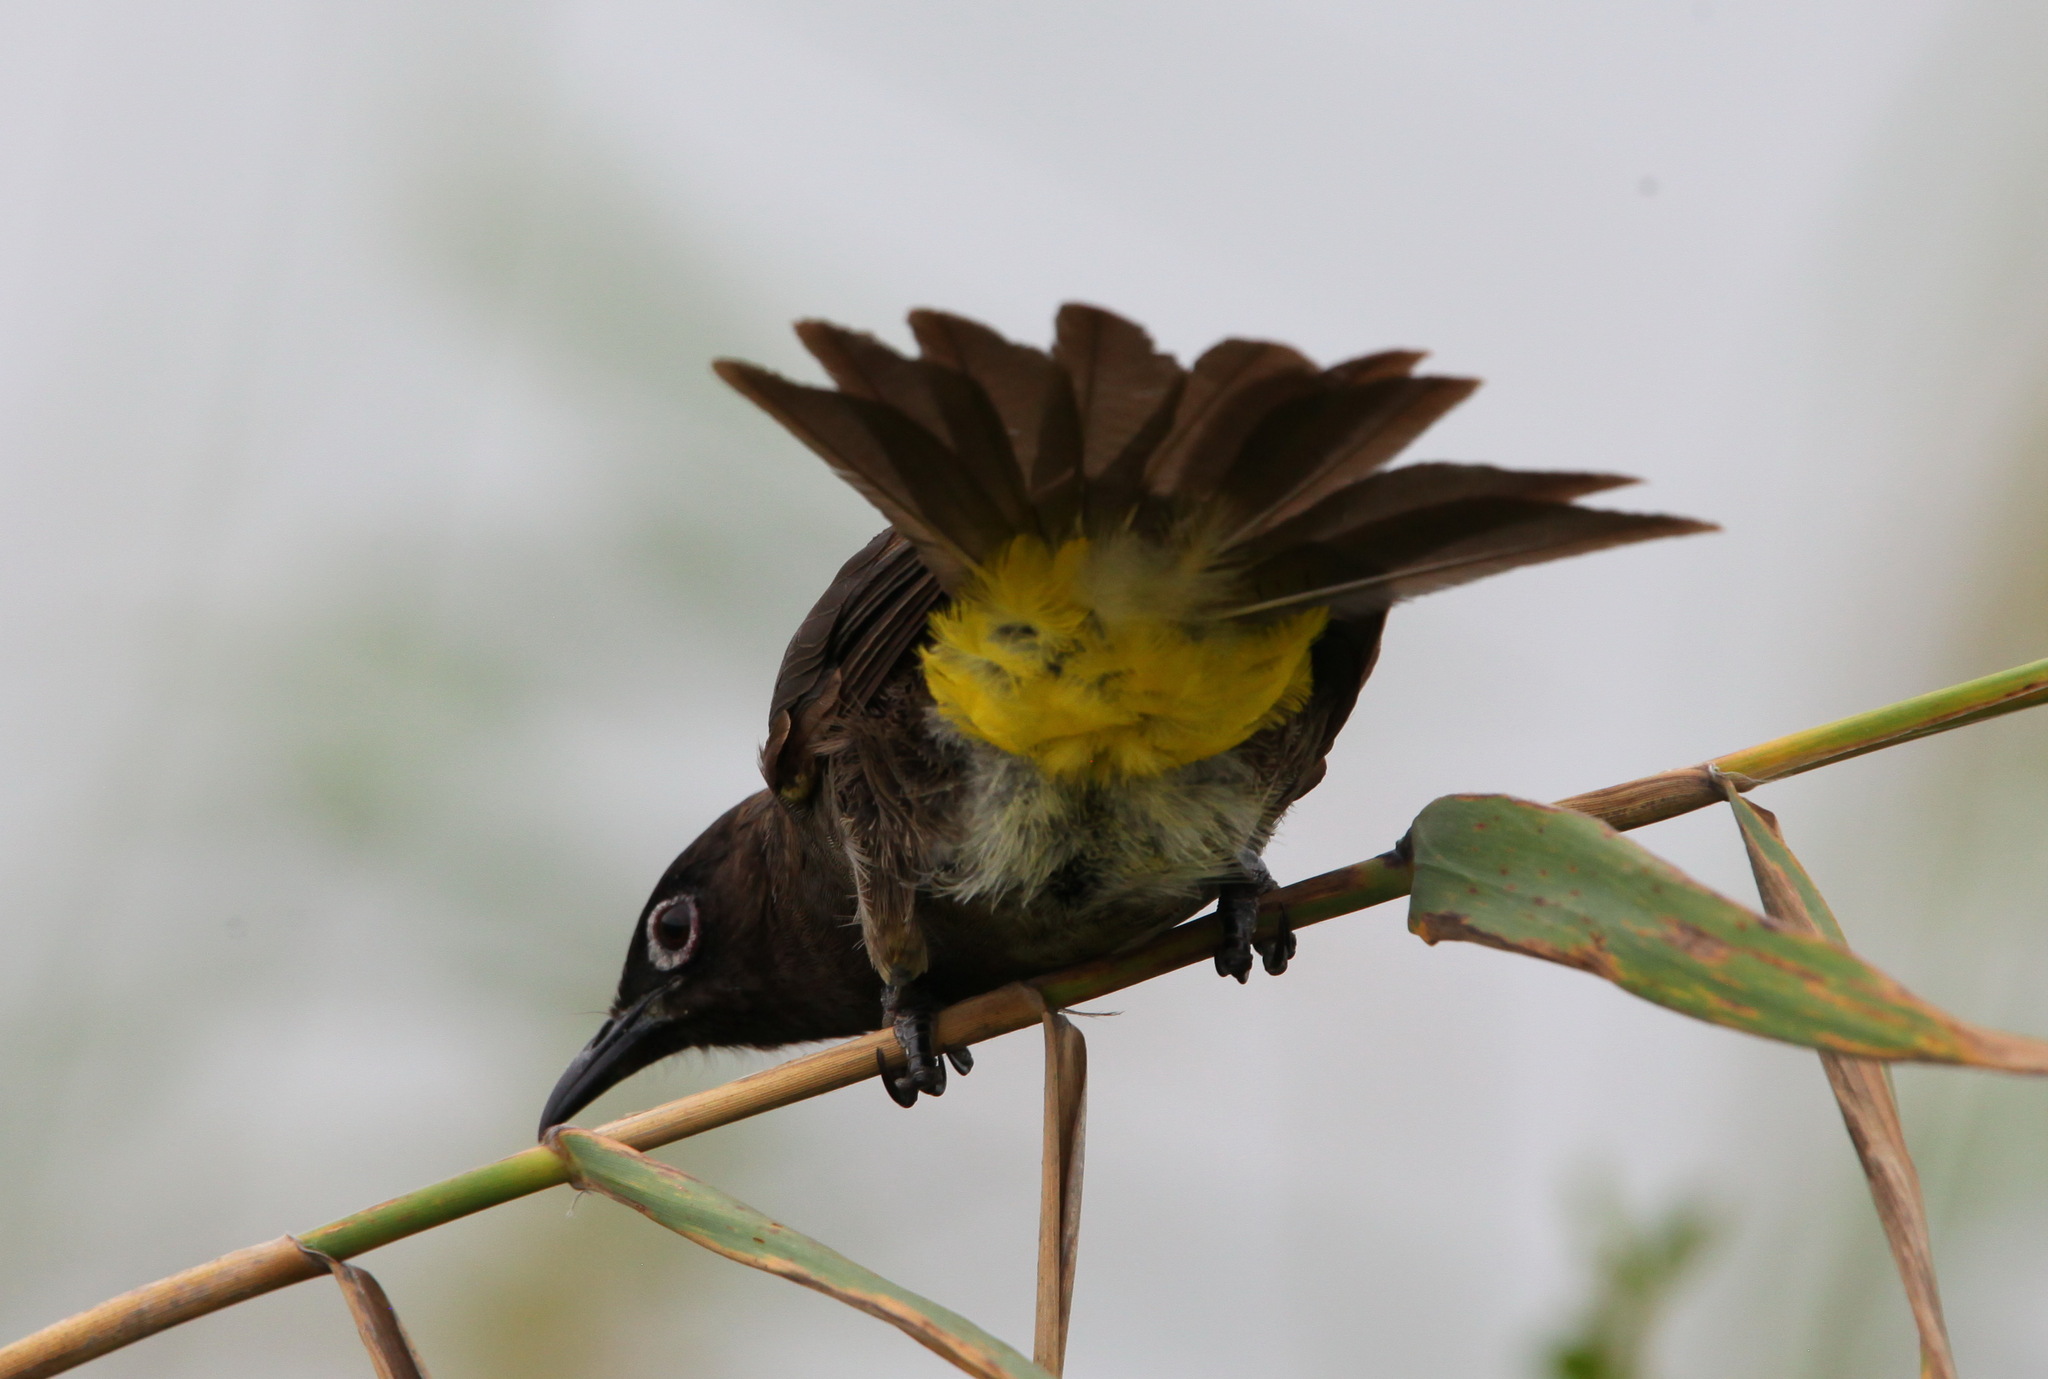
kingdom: Animalia
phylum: Chordata
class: Aves
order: Passeriformes
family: Pycnonotidae
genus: Pycnonotus
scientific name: Pycnonotus capensis
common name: Cape bulbul
